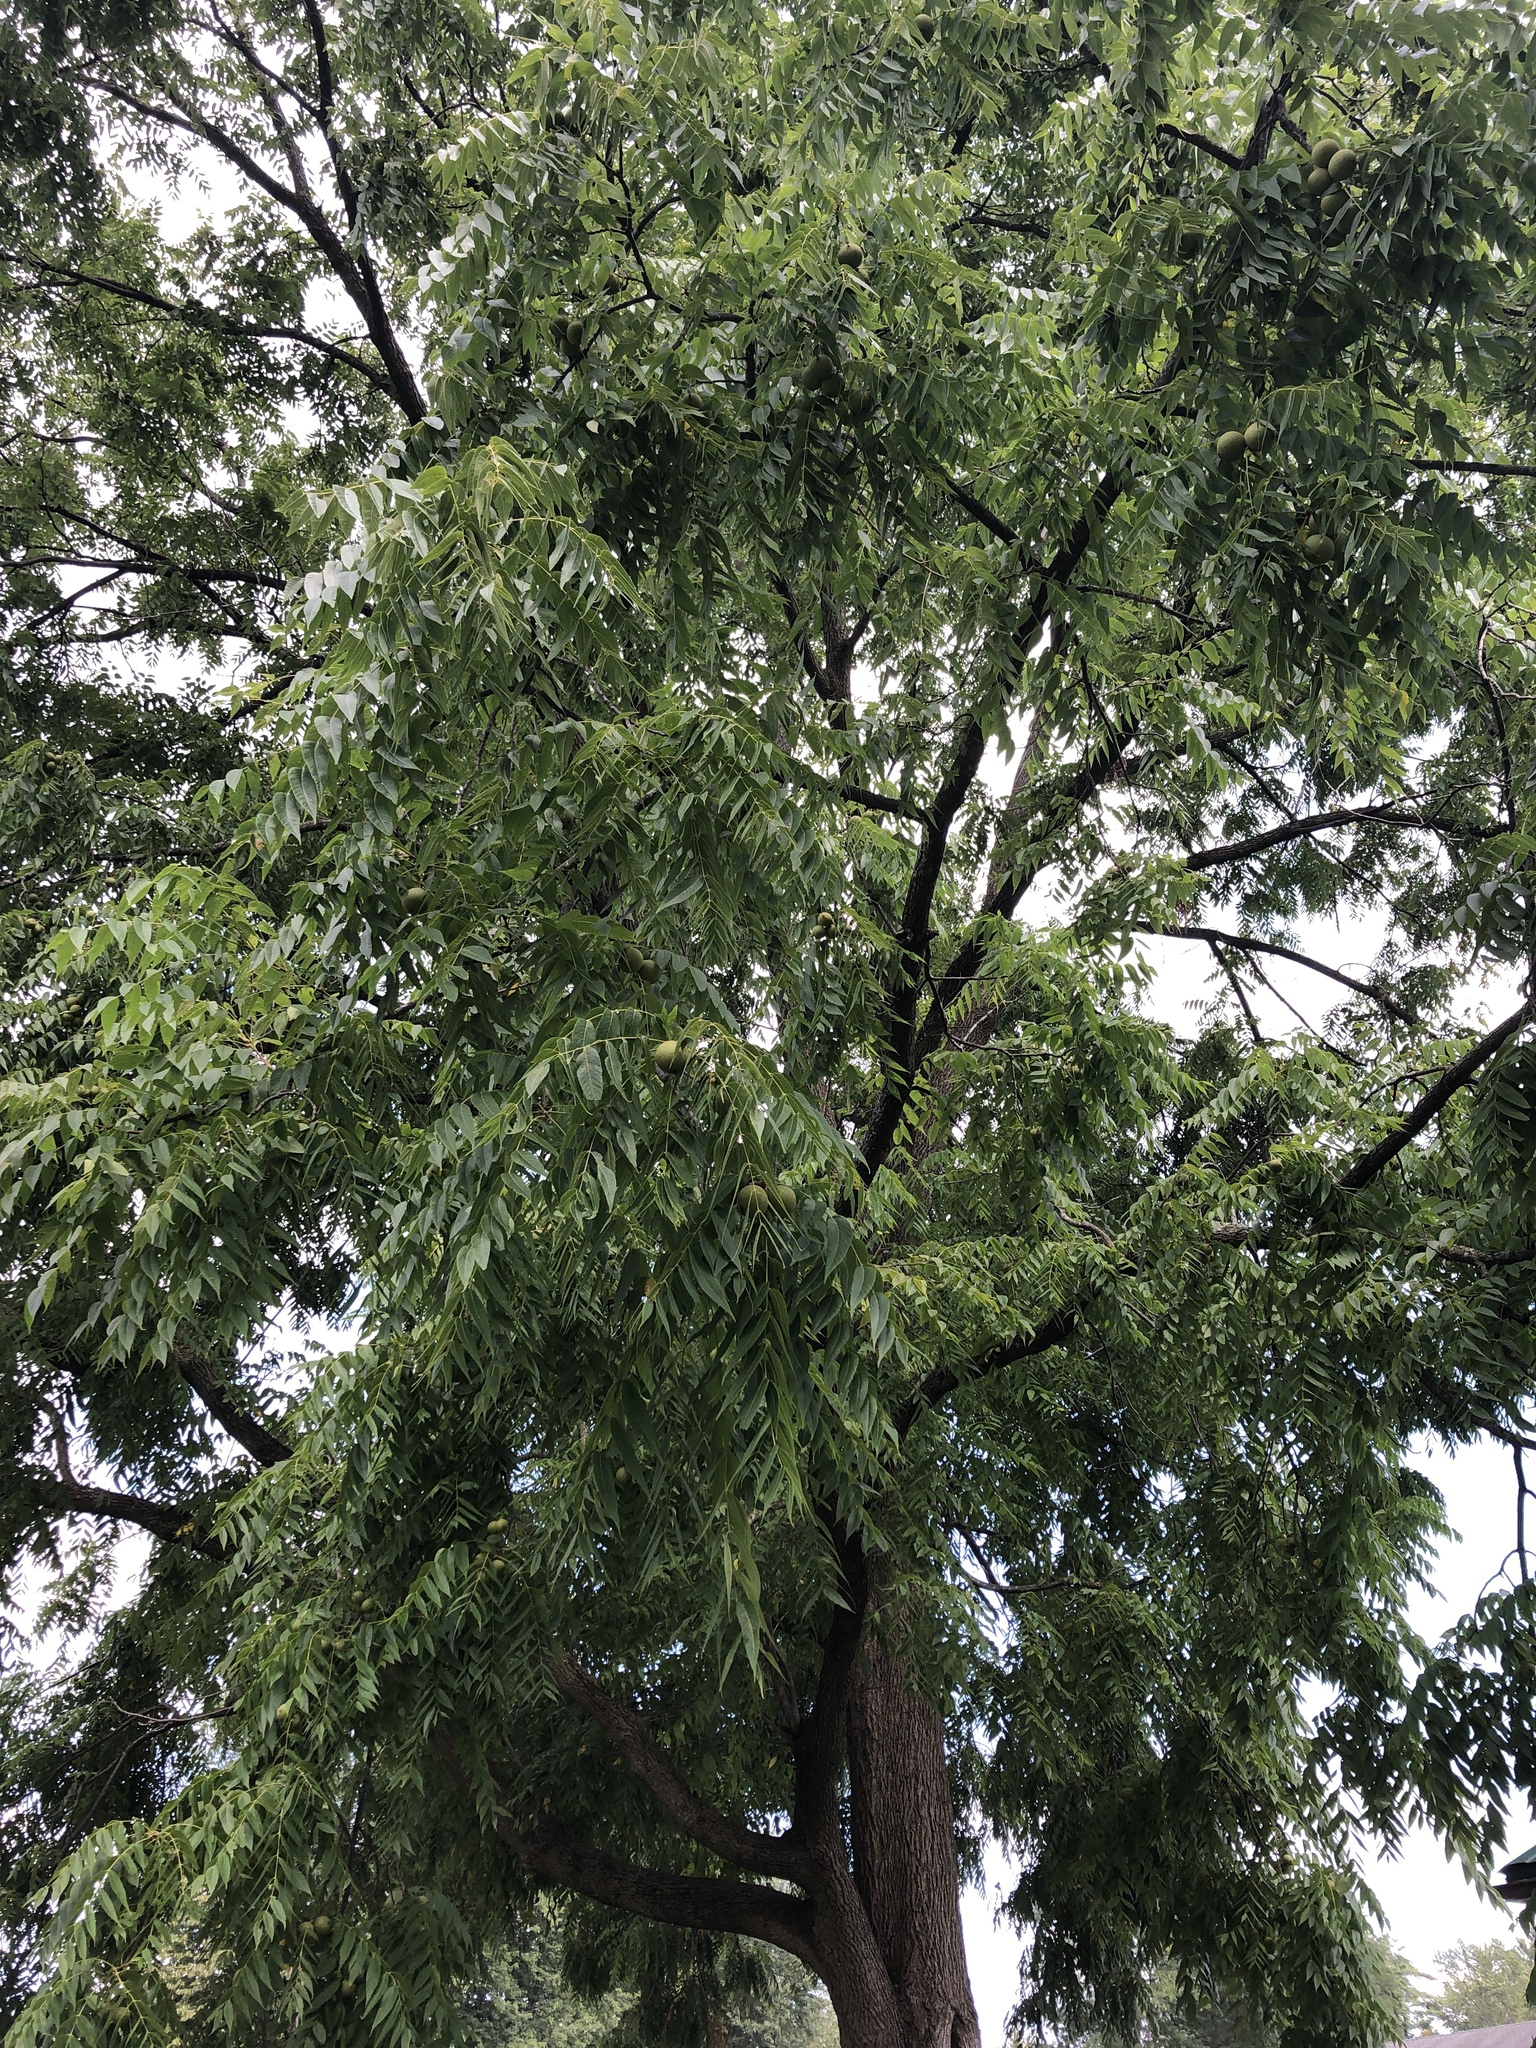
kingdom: Plantae
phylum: Tracheophyta
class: Magnoliopsida
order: Fagales
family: Juglandaceae
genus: Juglans
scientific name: Juglans nigra
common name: Black walnut
